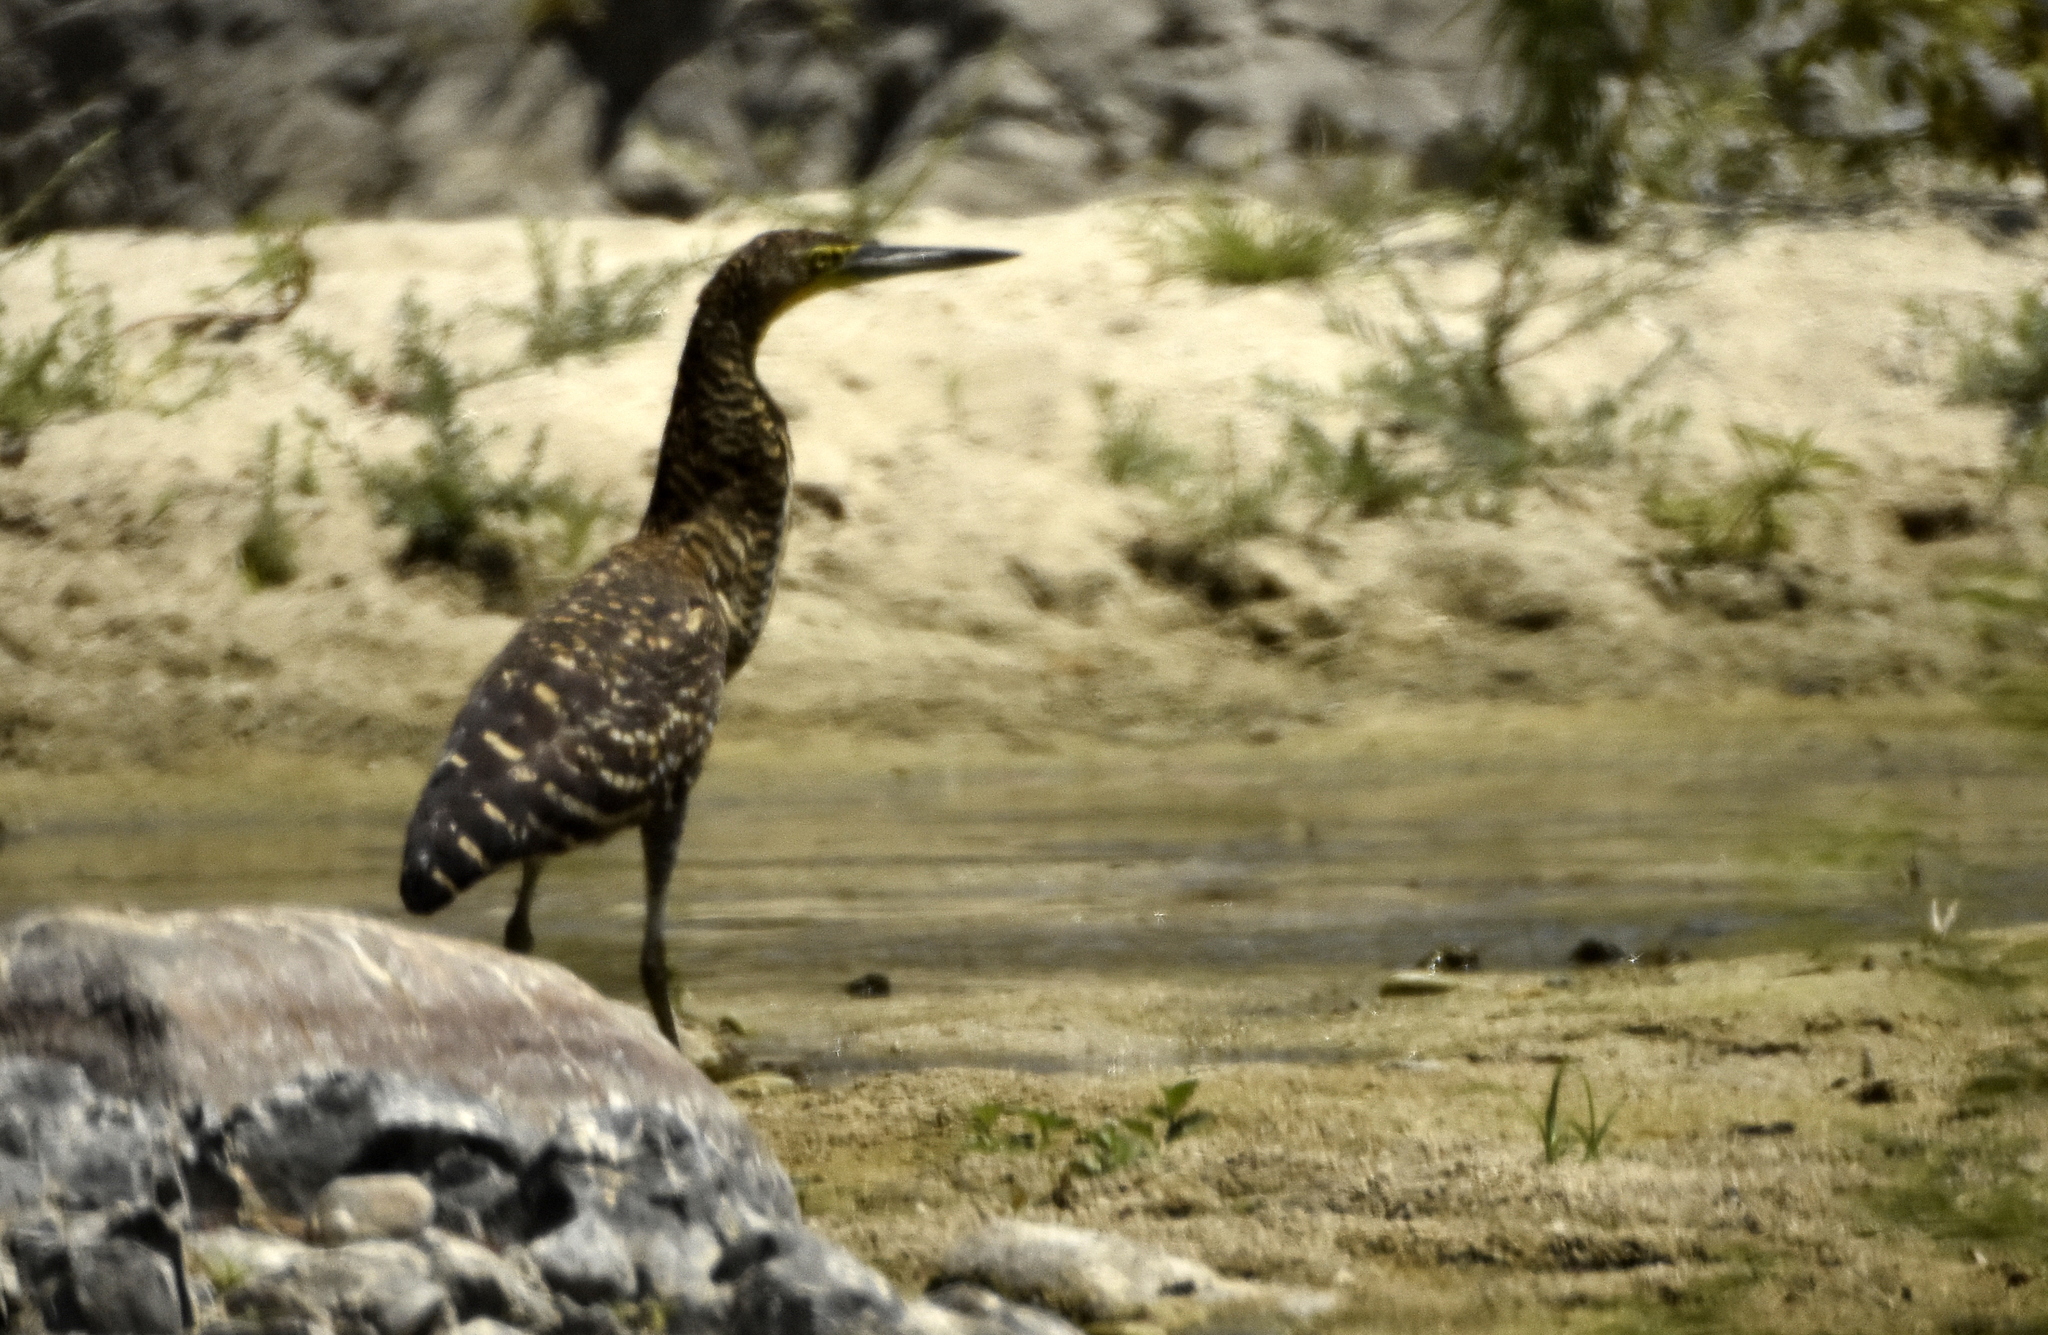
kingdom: Animalia
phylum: Chordata
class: Aves
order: Pelecaniformes
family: Ardeidae
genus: Tigrisoma
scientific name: Tigrisoma mexicanum
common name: Bare-throated tiger-heron
